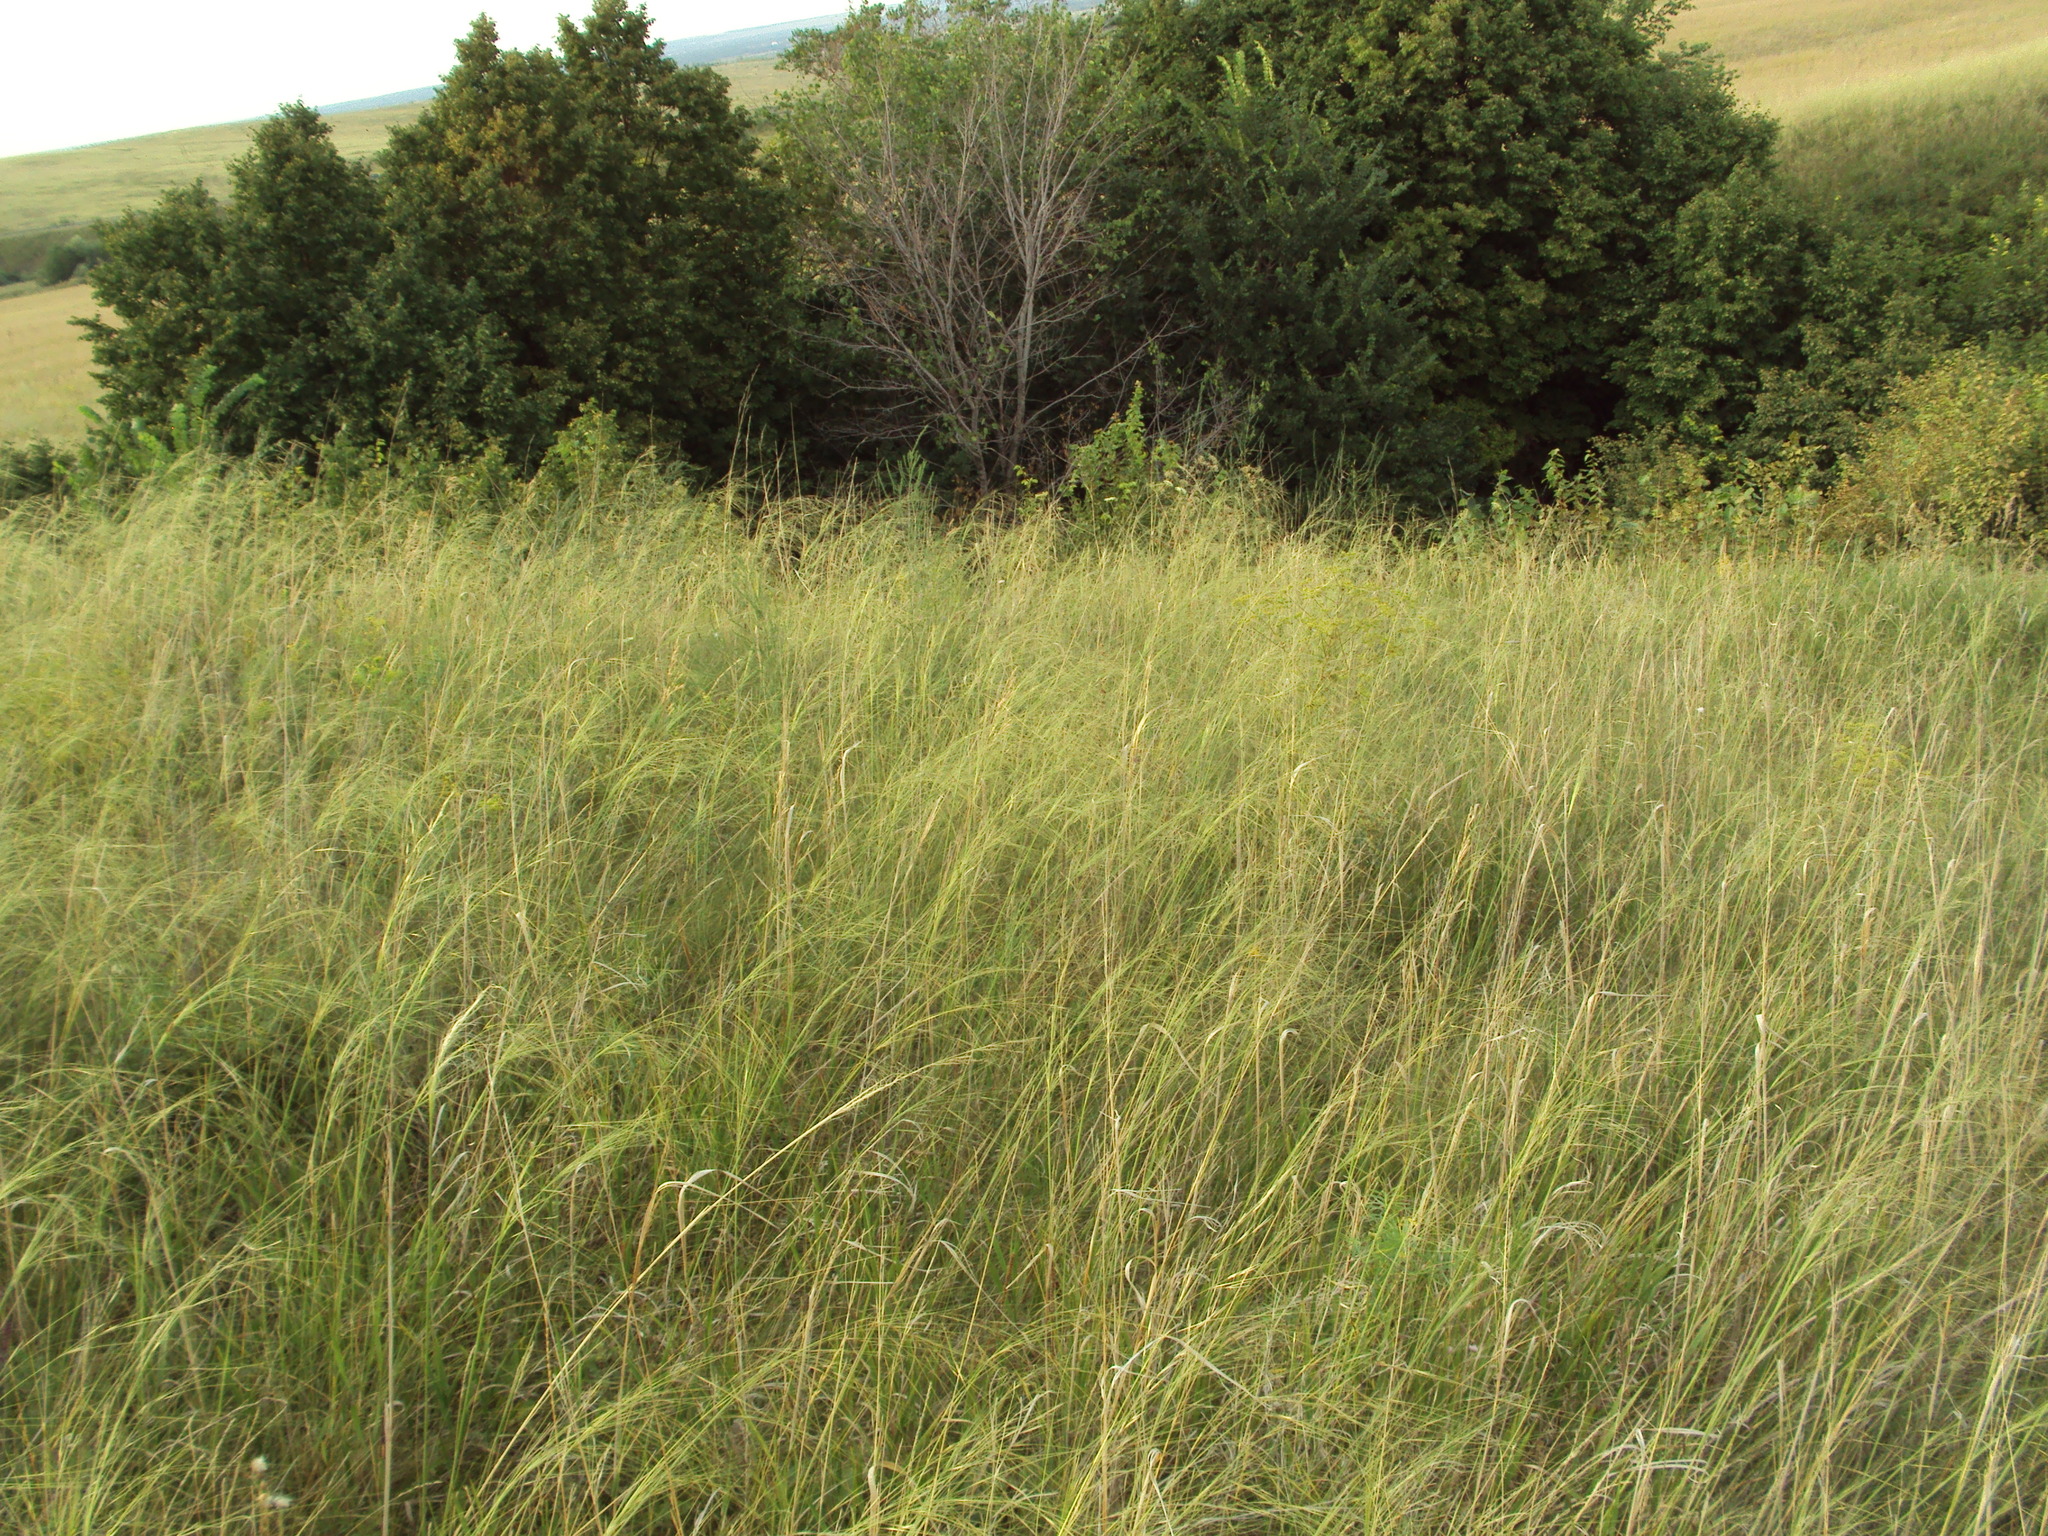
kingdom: Plantae
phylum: Tracheophyta
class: Liliopsida
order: Poales
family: Poaceae
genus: Stipa
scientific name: Stipa capillata
